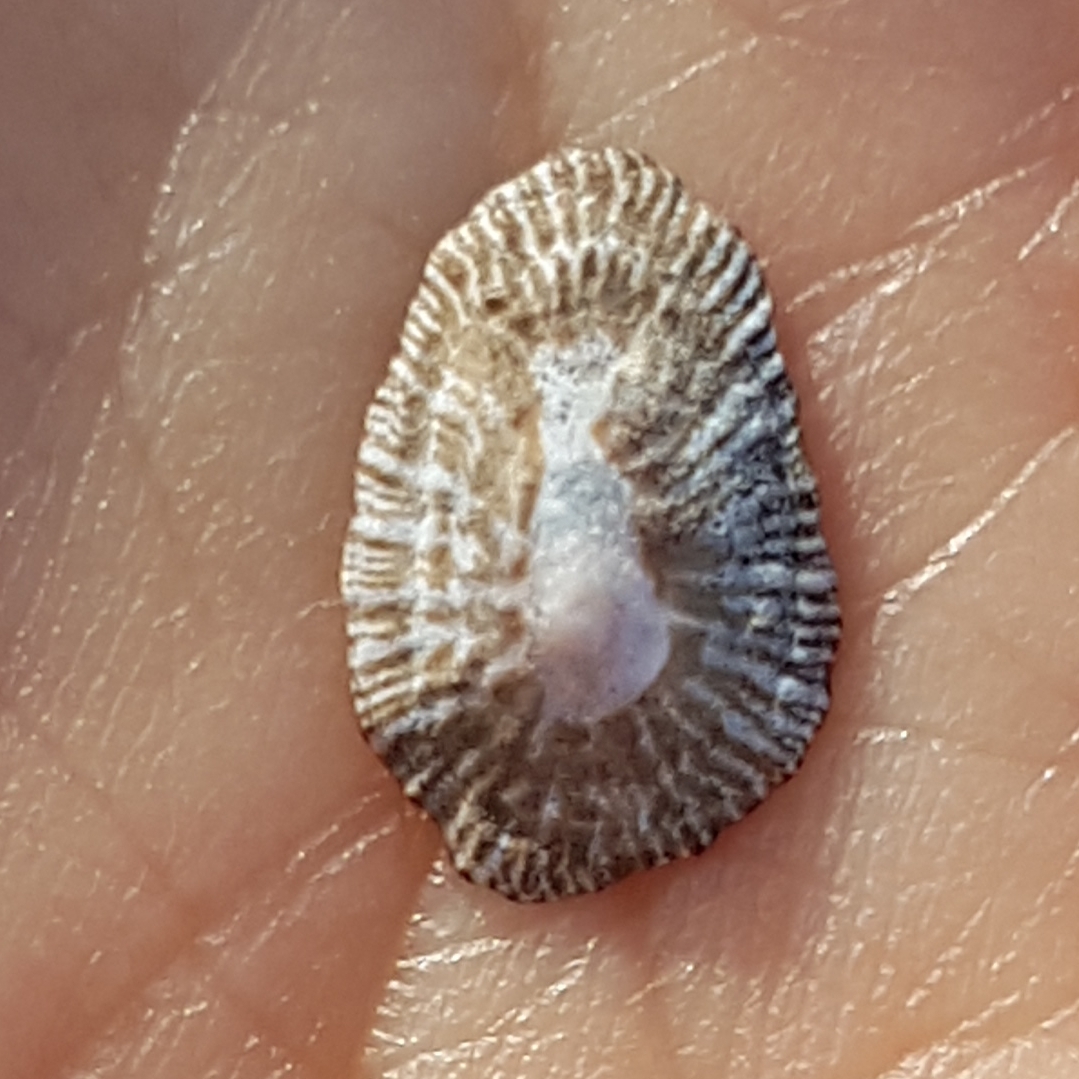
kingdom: Animalia
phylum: Mollusca
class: Gastropoda
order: Siphonariida
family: Siphonariidae
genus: Siphonaria
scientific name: Siphonaria pectinata
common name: Striped false limpet
